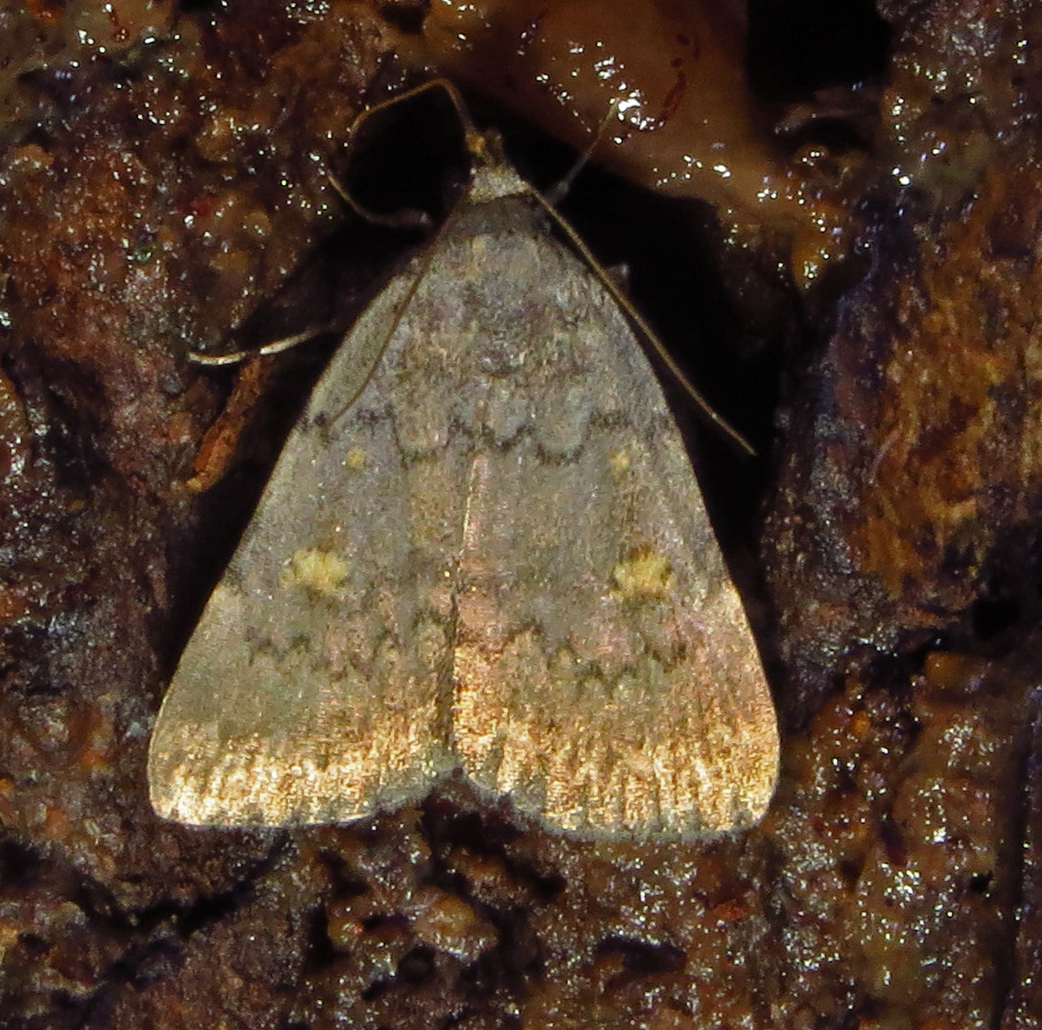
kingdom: Animalia
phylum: Arthropoda
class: Insecta
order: Lepidoptera
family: Erebidae
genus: Idia
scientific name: Idia aemula
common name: Common idia moth
